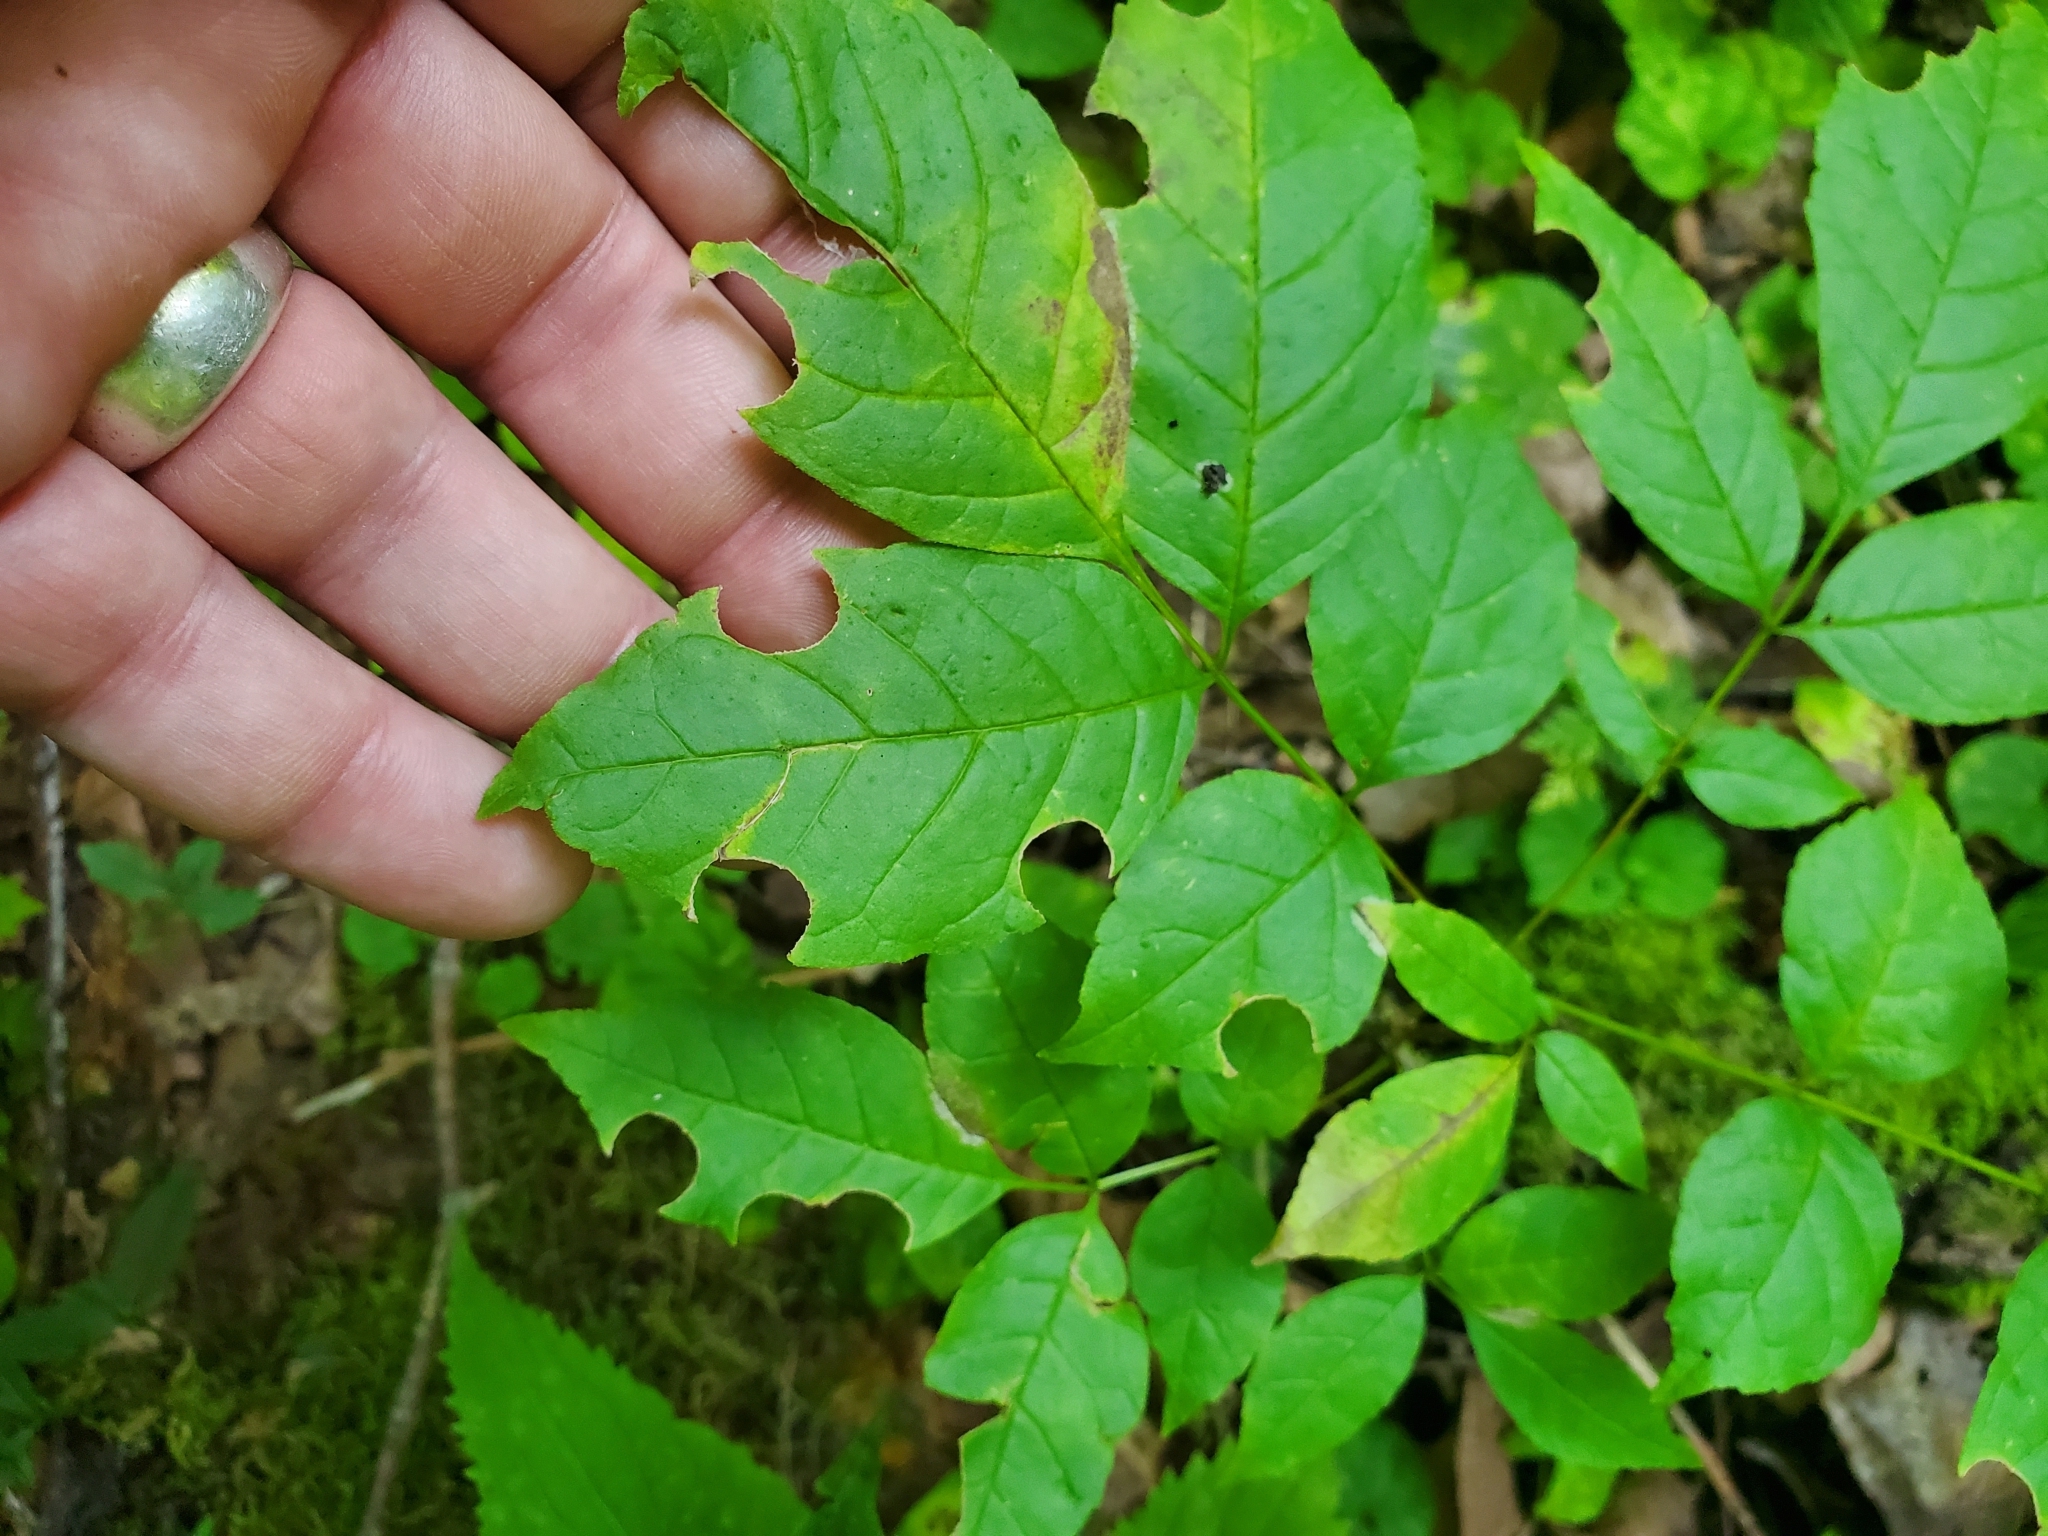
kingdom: Plantae
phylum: Tracheophyta
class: Magnoliopsida
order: Lamiales
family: Oleaceae
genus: Fraxinus
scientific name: Fraxinus pennsylvanica
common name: Green ash
